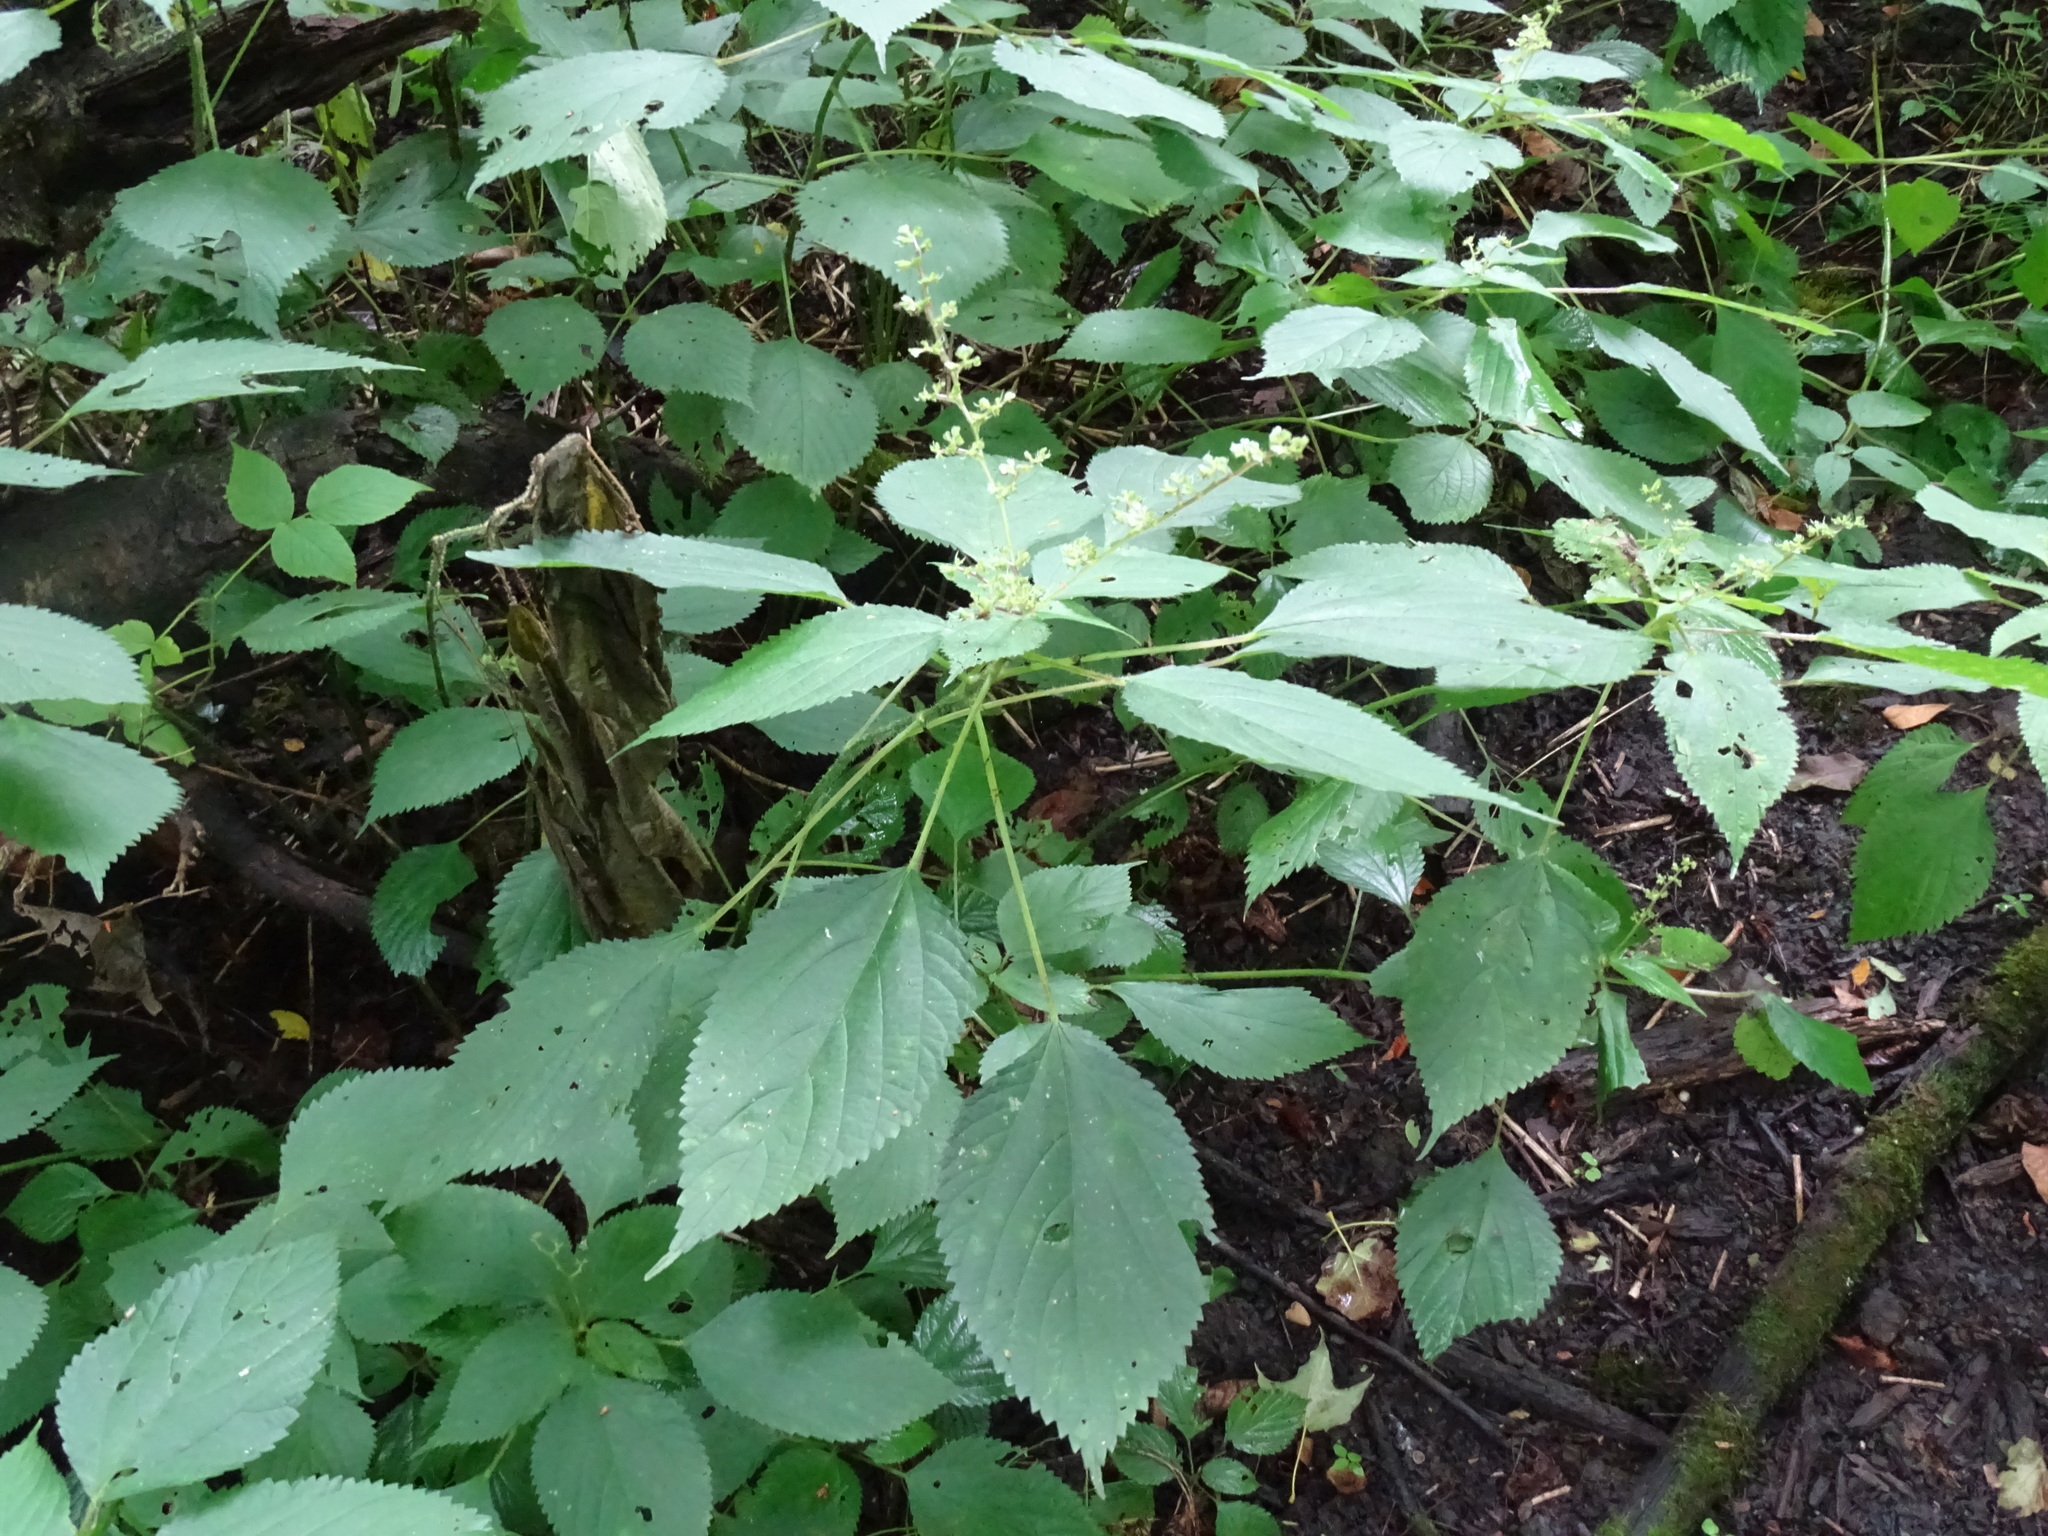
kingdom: Plantae
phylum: Tracheophyta
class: Magnoliopsida
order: Rosales
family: Urticaceae
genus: Laportea
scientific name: Laportea canadensis
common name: Canada nettle
